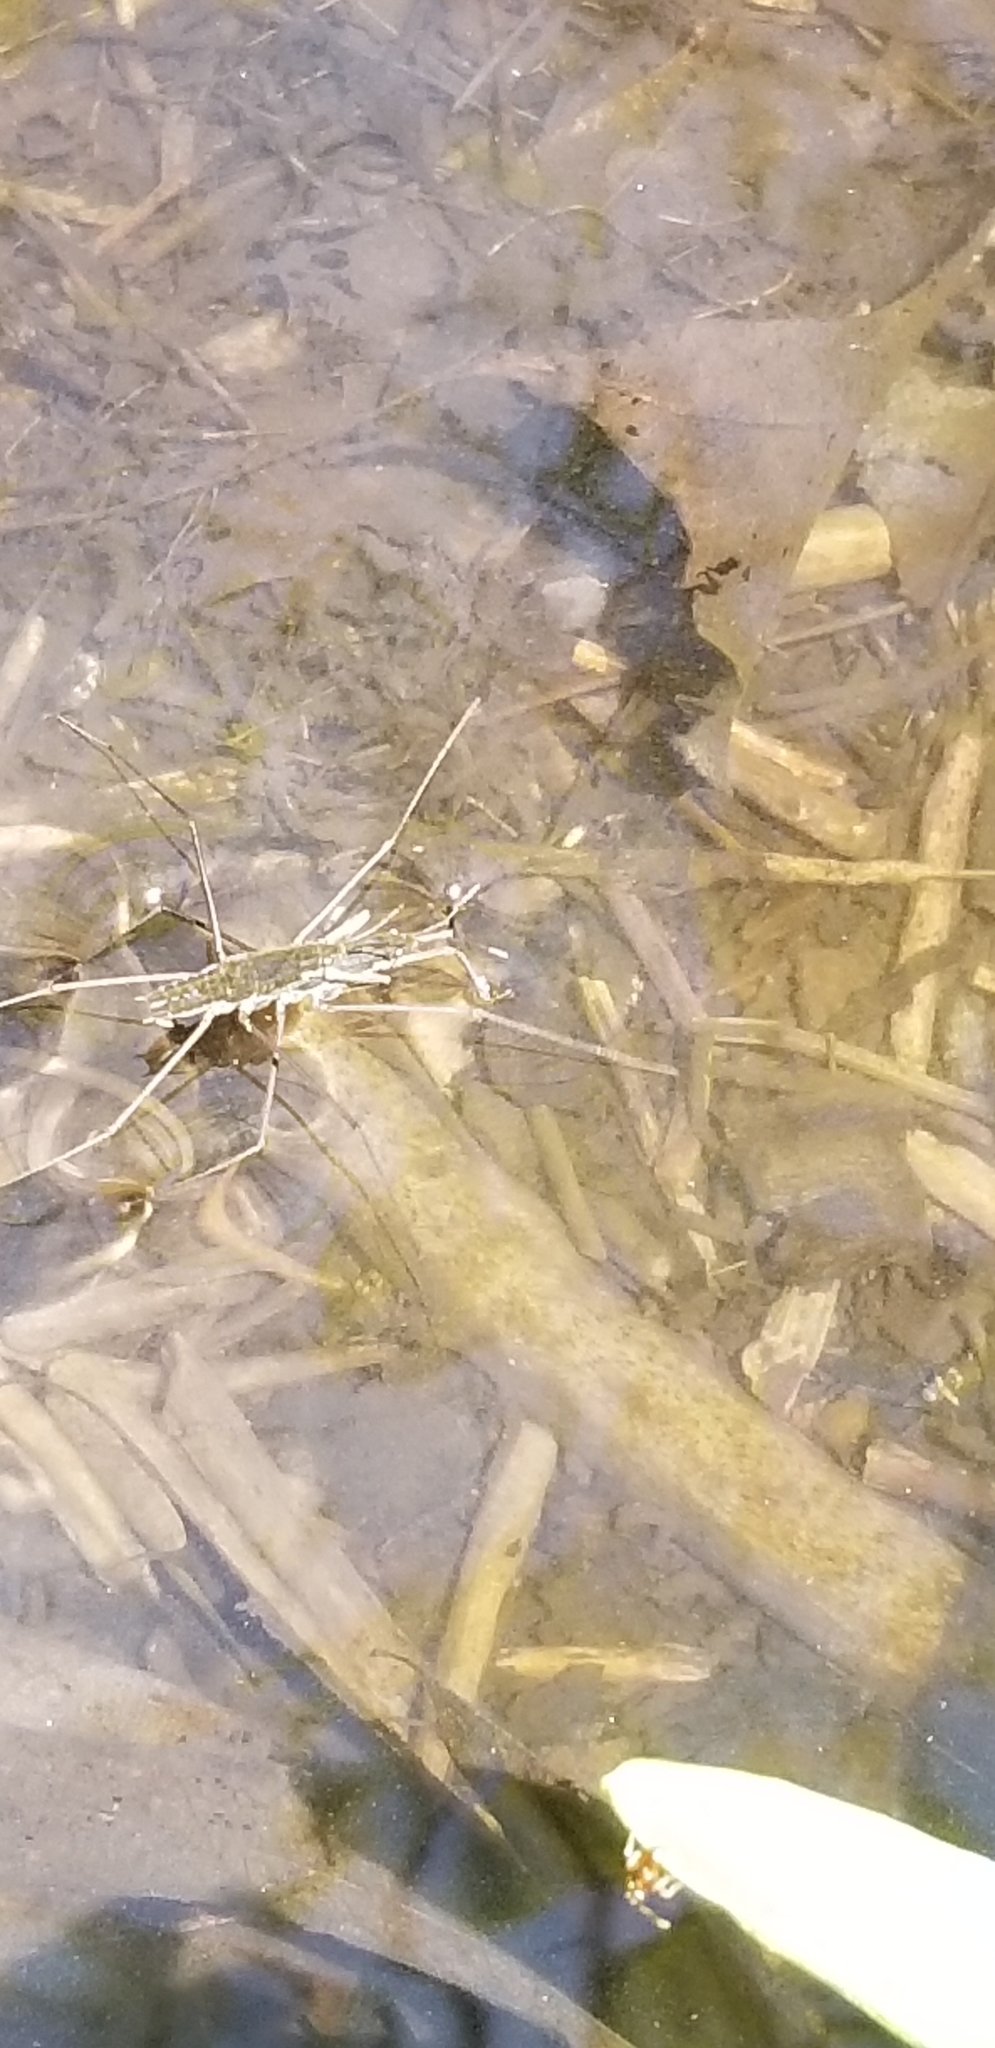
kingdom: Animalia
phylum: Arthropoda
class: Insecta
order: Hemiptera
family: Gerridae
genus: Aquarius
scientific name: Aquarius remigis
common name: Common water strider
